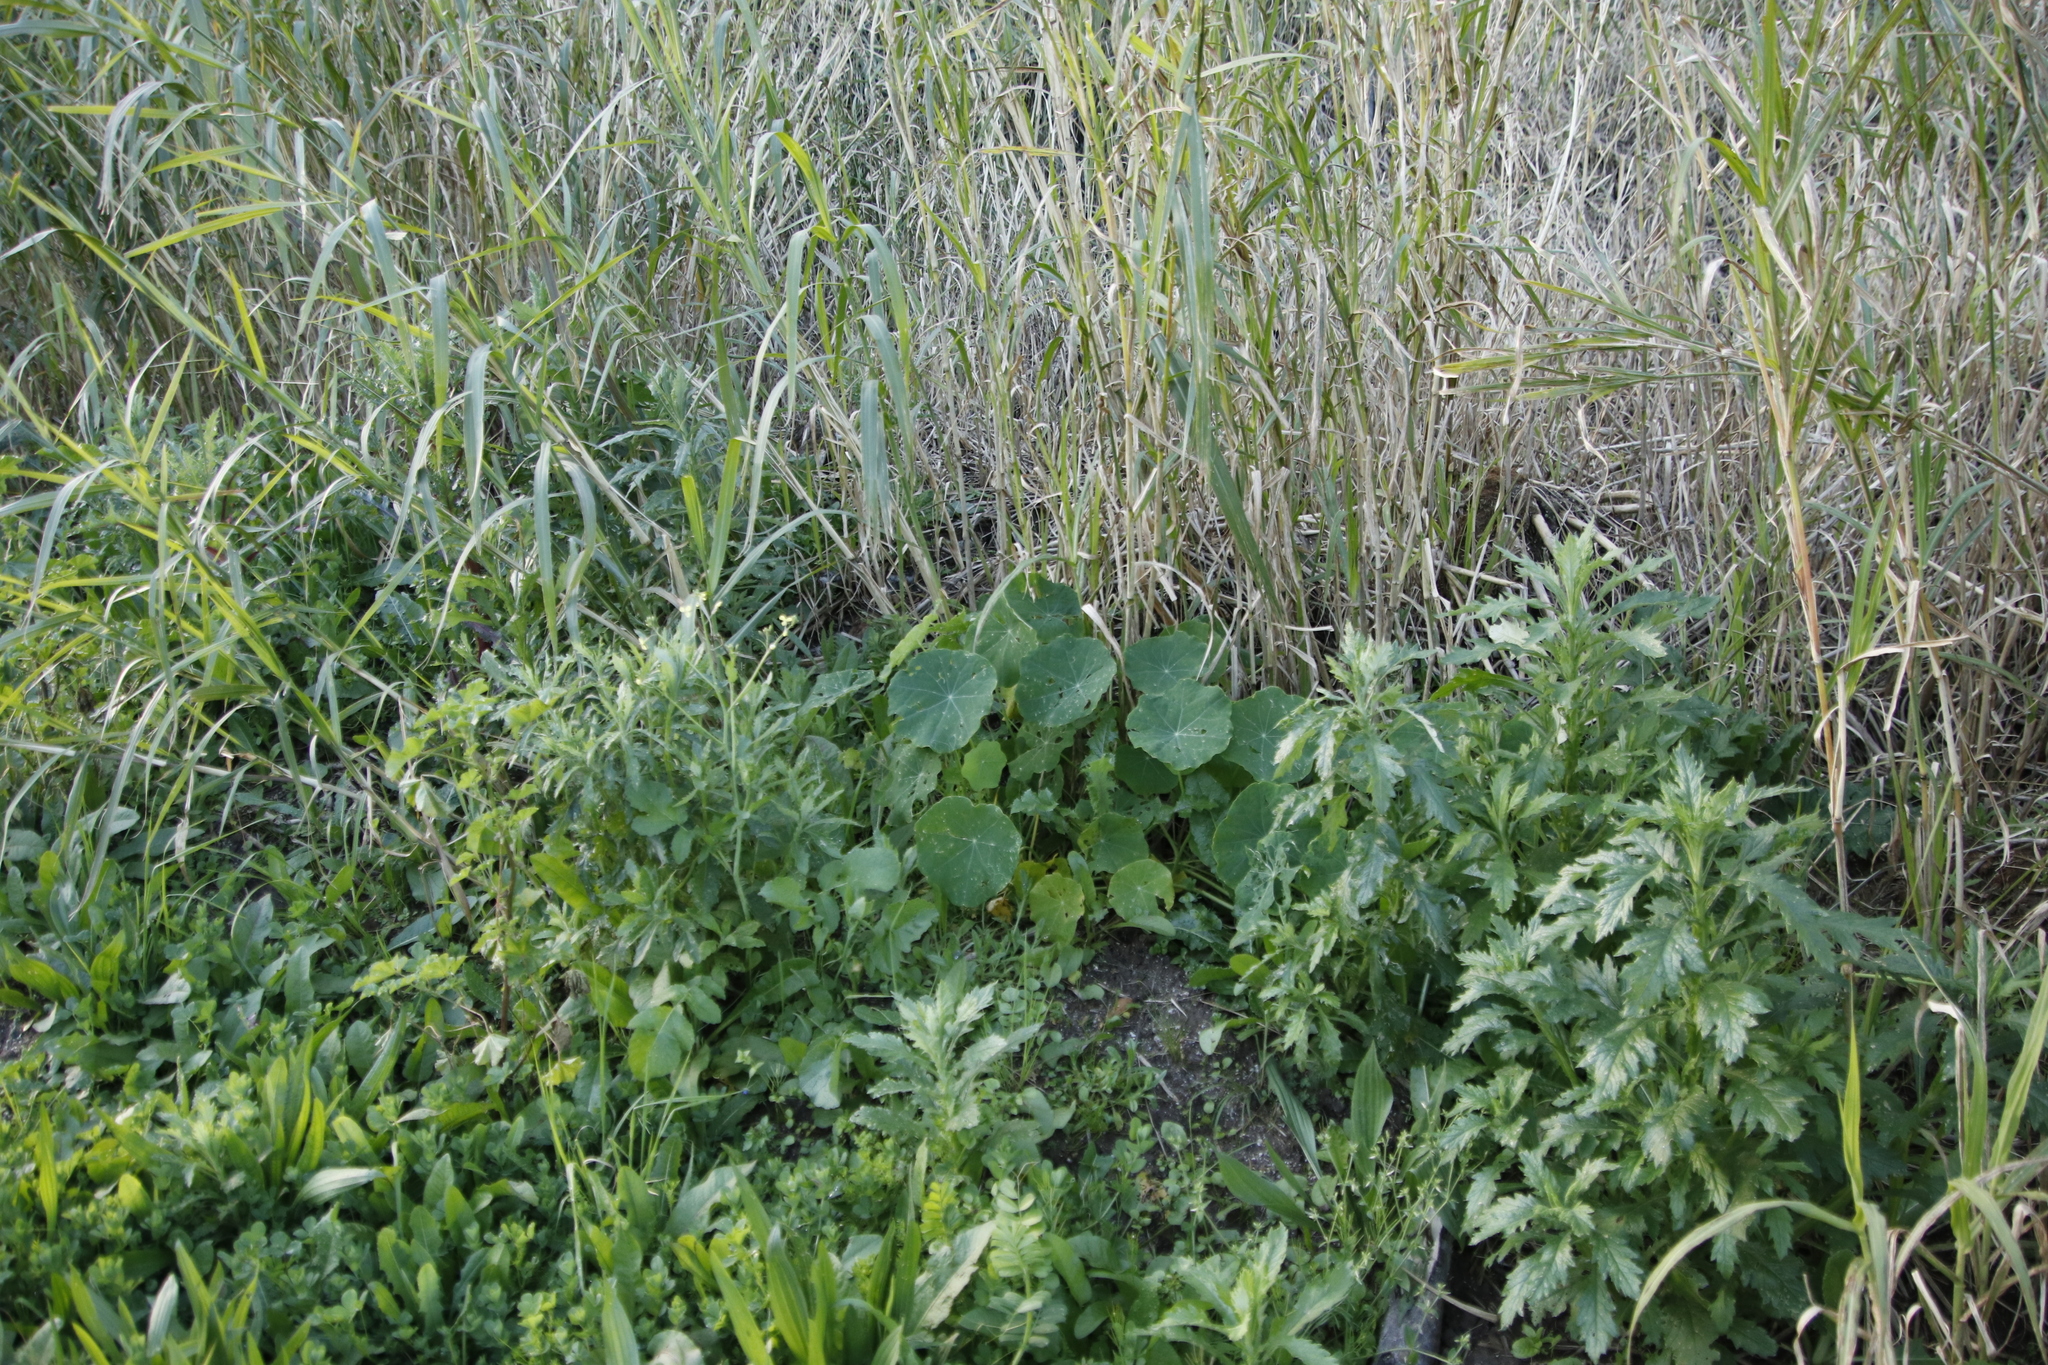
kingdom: Plantae
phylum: Tracheophyta
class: Magnoliopsida
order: Brassicales
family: Tropaeolaceae
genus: Tropaeolum
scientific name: Tropaeolum majus
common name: Nasturtium
